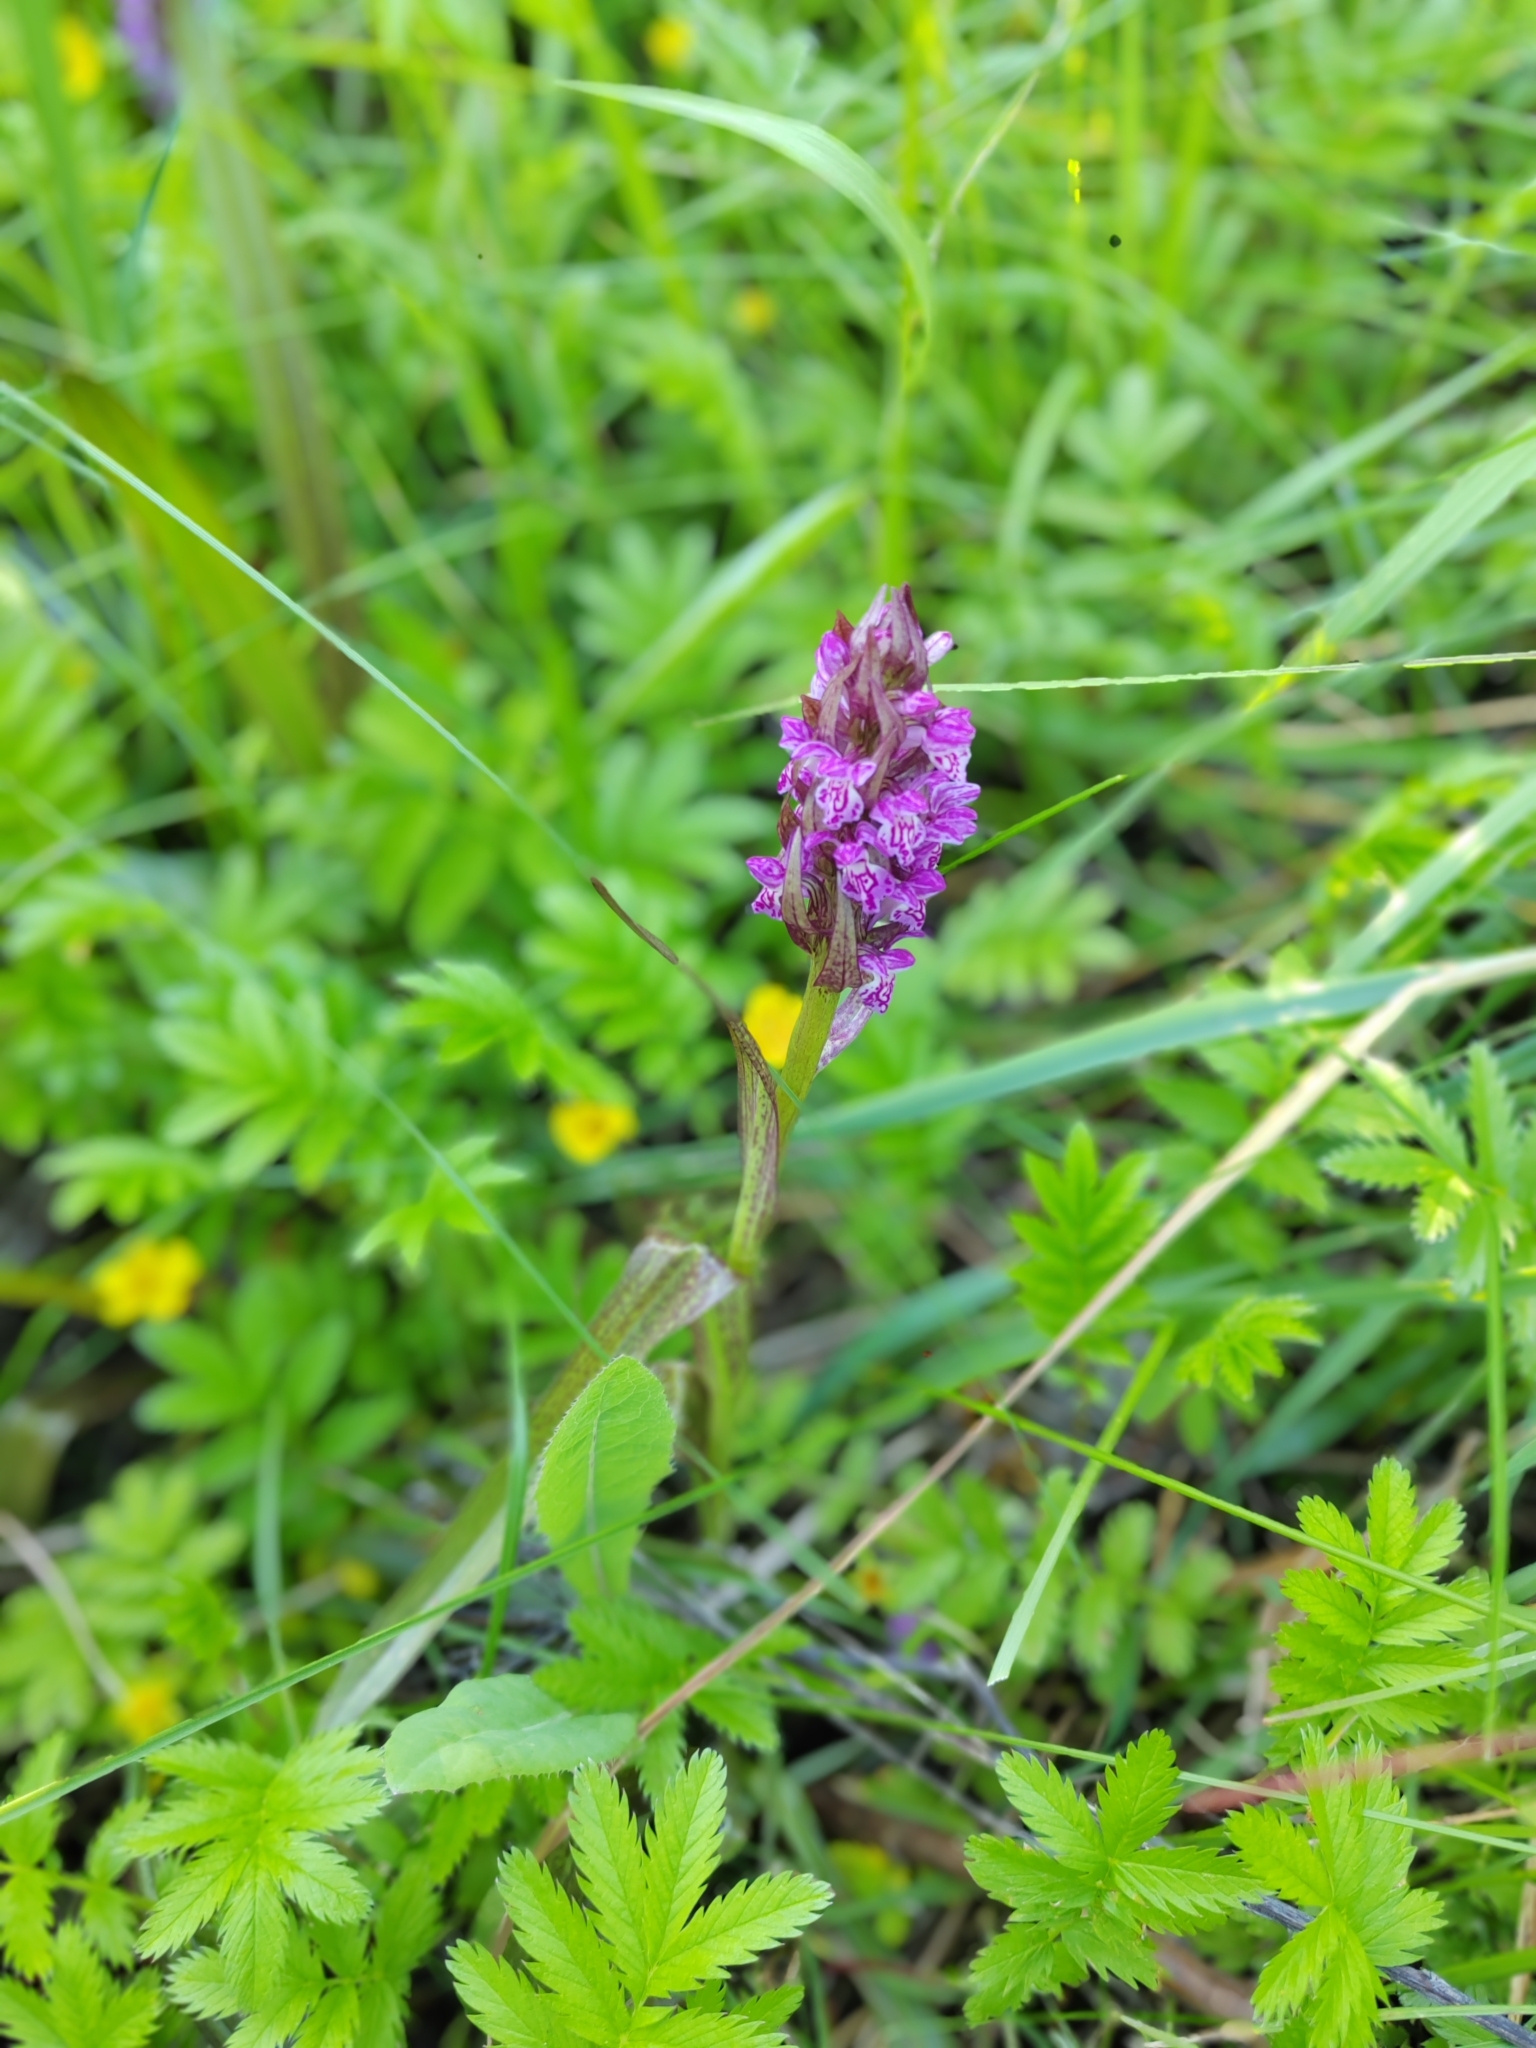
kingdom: Plantae
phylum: Tracheophyta
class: Liliopsida
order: Asparagales
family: Orchidaceae
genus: Dactylorhiza
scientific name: Dactylorhiza incarnata
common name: Early marsh-orchid
